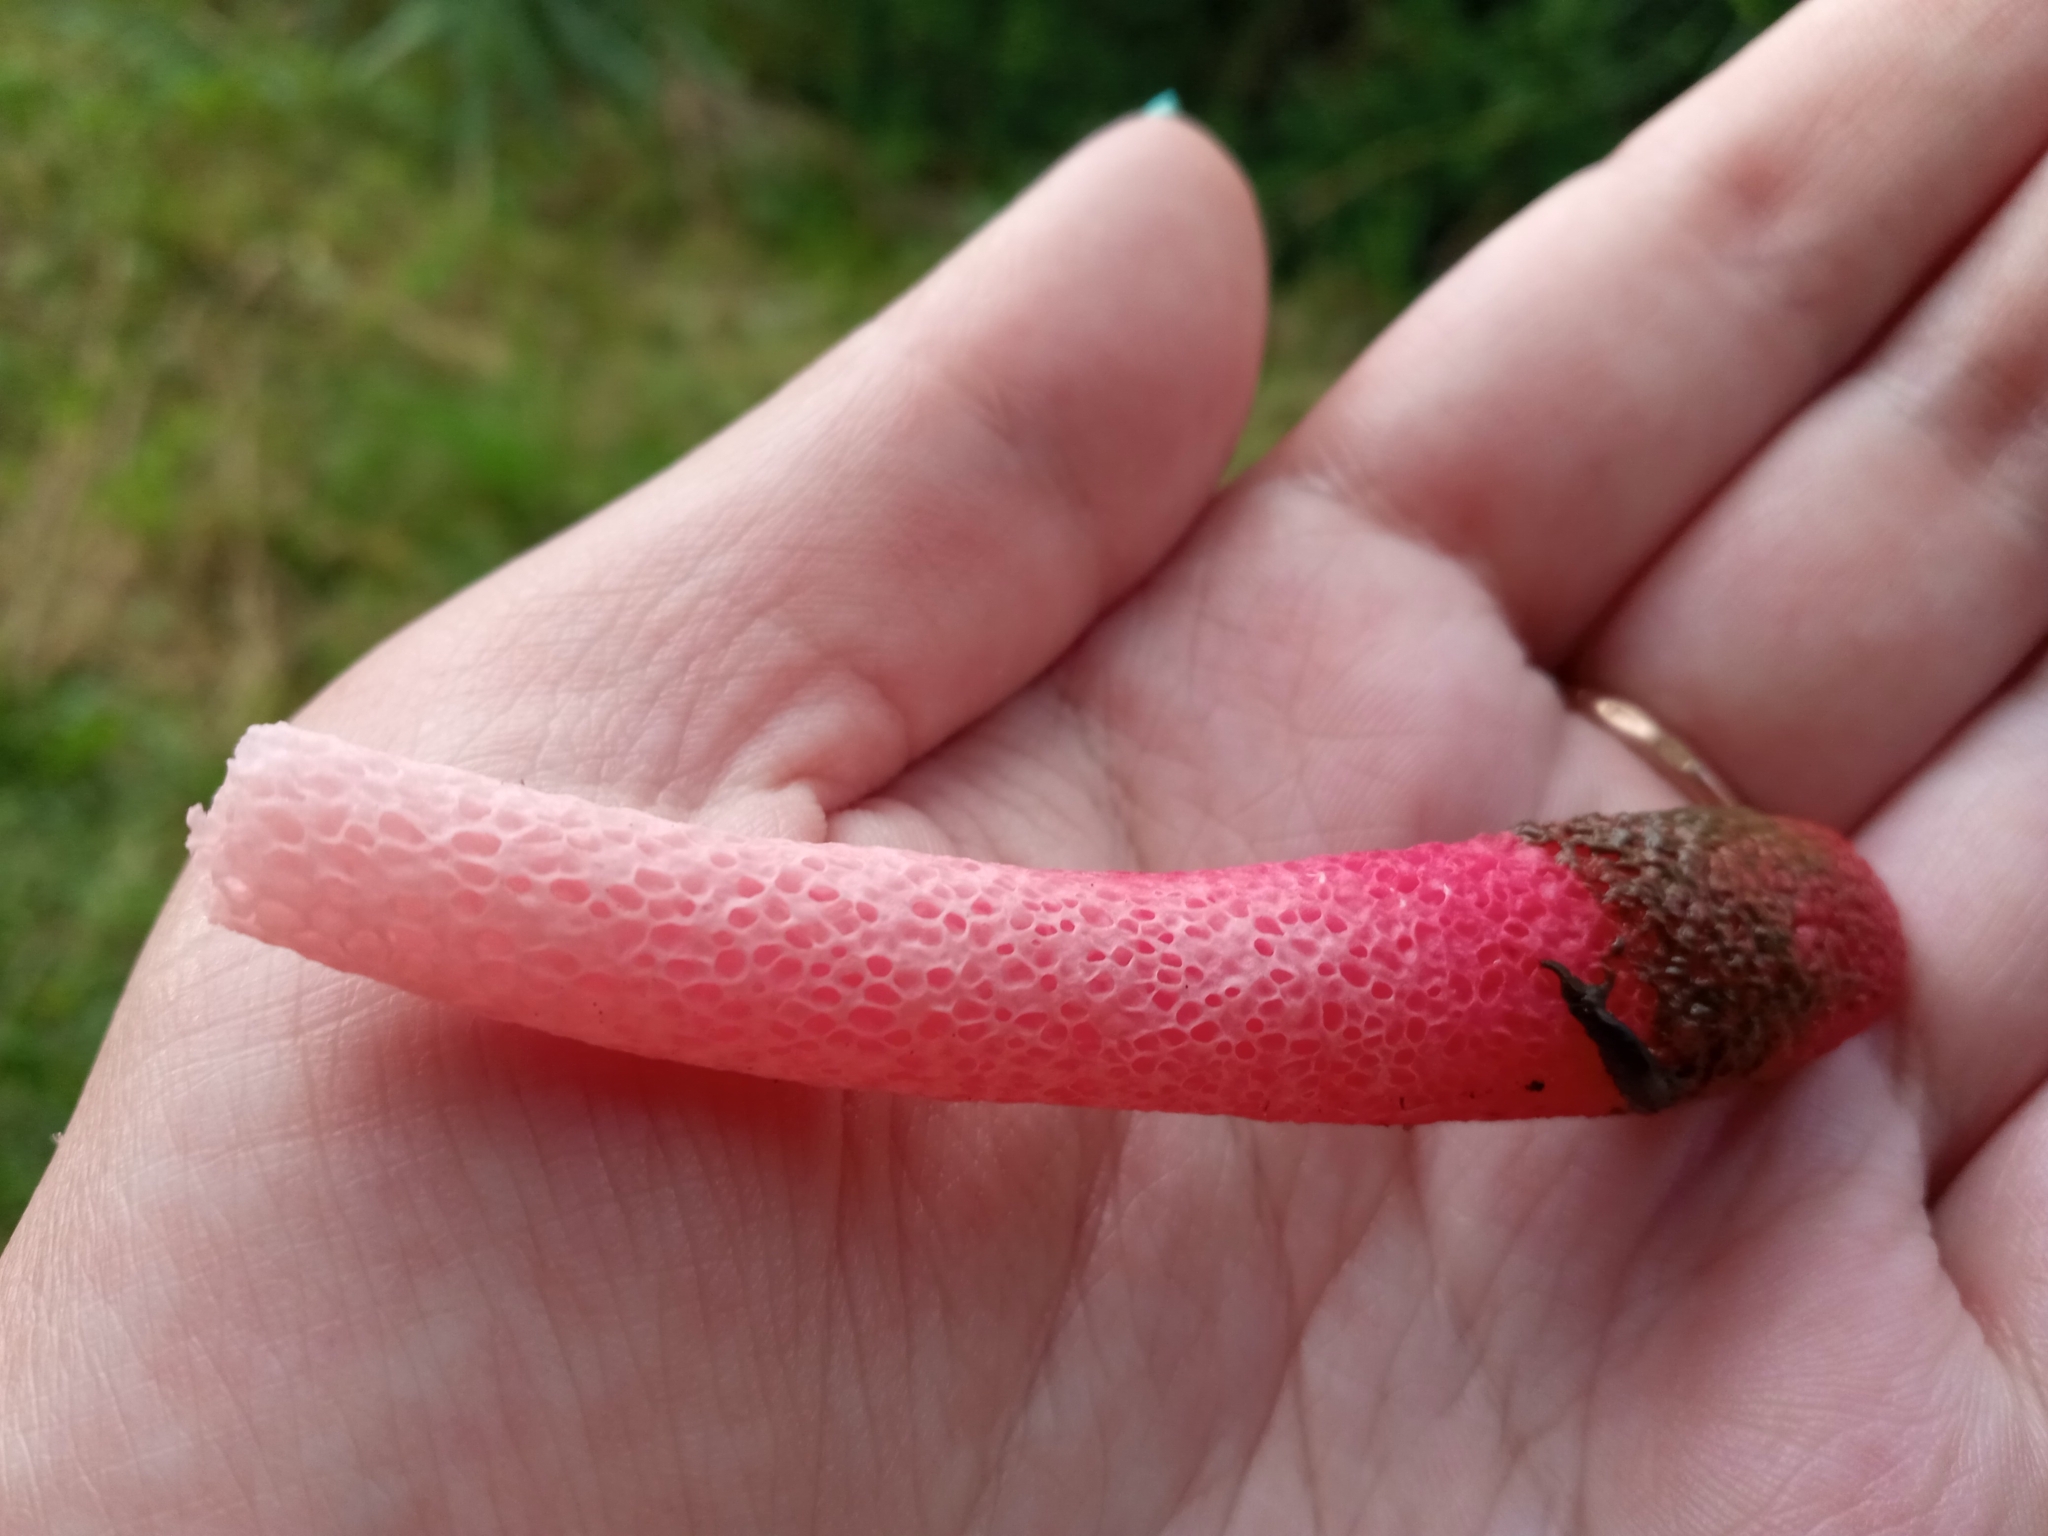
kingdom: Fungi
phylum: Basidiomycota
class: Agaricomycetes
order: Phallales
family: Phallaceae
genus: Mutinus
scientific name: Mutinus ravenelii
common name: Red stinkhorn
